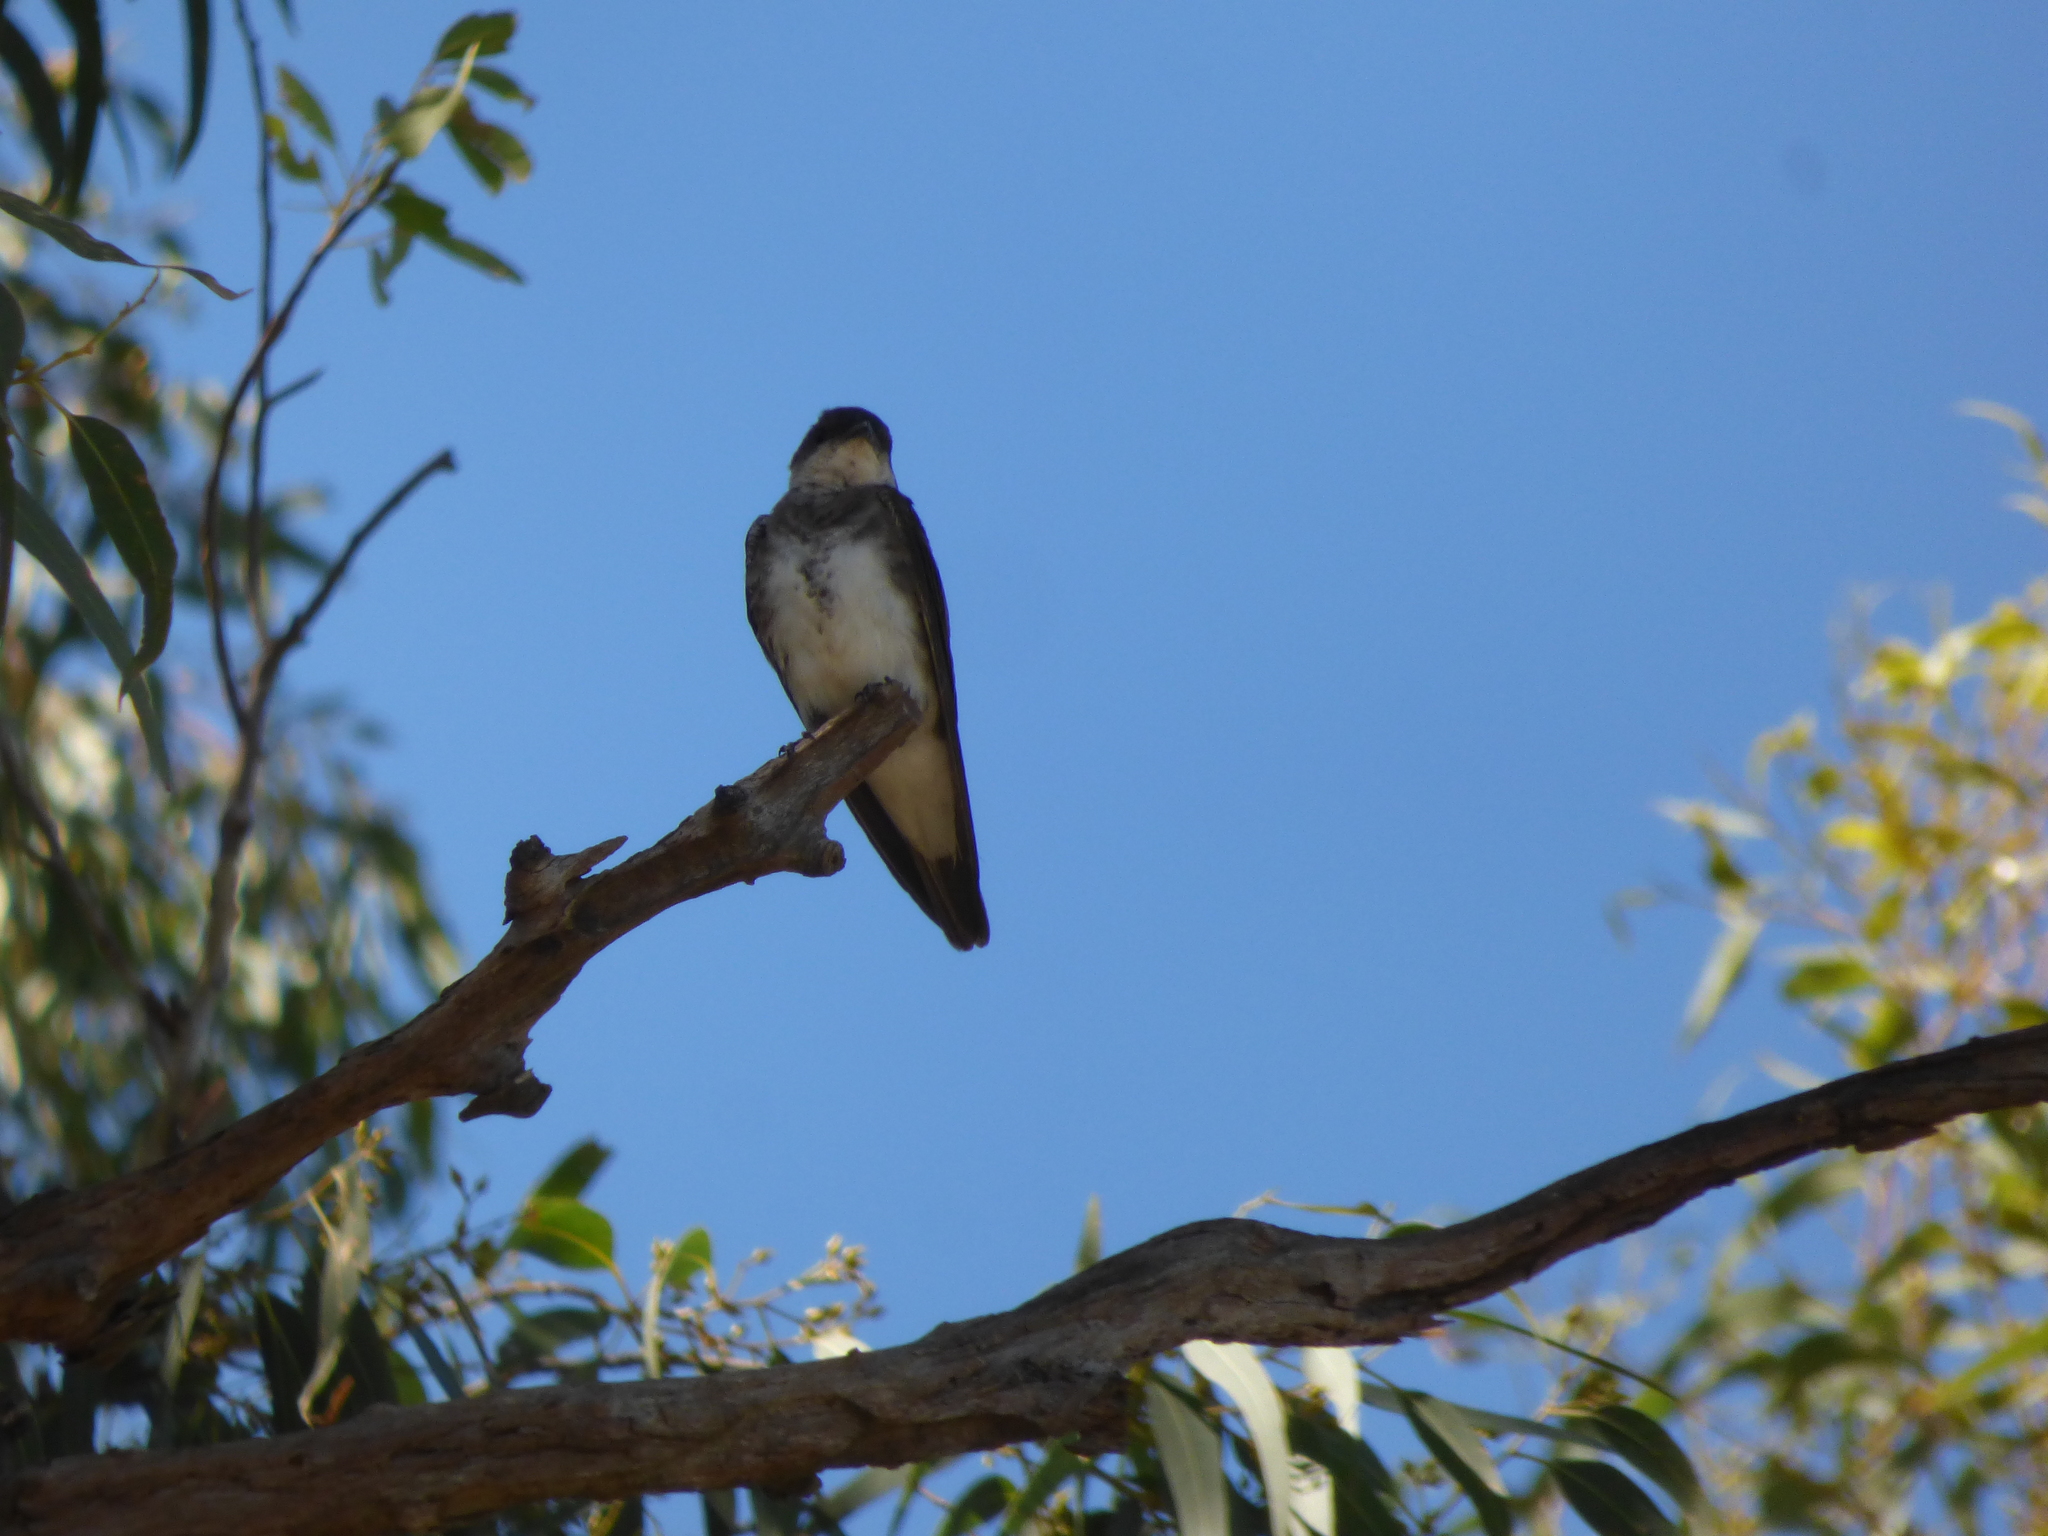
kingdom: Animalia
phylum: Chordata
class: Aves
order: Passeriformes
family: Hirundinidae
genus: Progne
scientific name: Progne tapera
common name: Brown-chested martin
